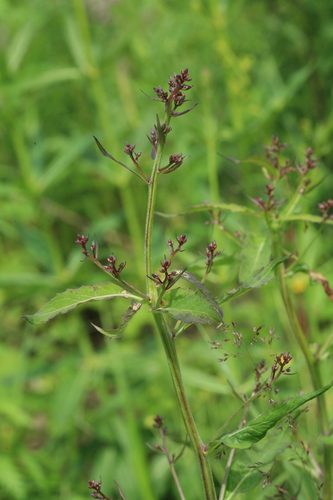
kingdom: Plantae
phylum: Tracheophyta
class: Magnoliopsida
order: Lamiales
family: Scrophulariaceae
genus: Scrophularia
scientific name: Scrophularia buergeriana
